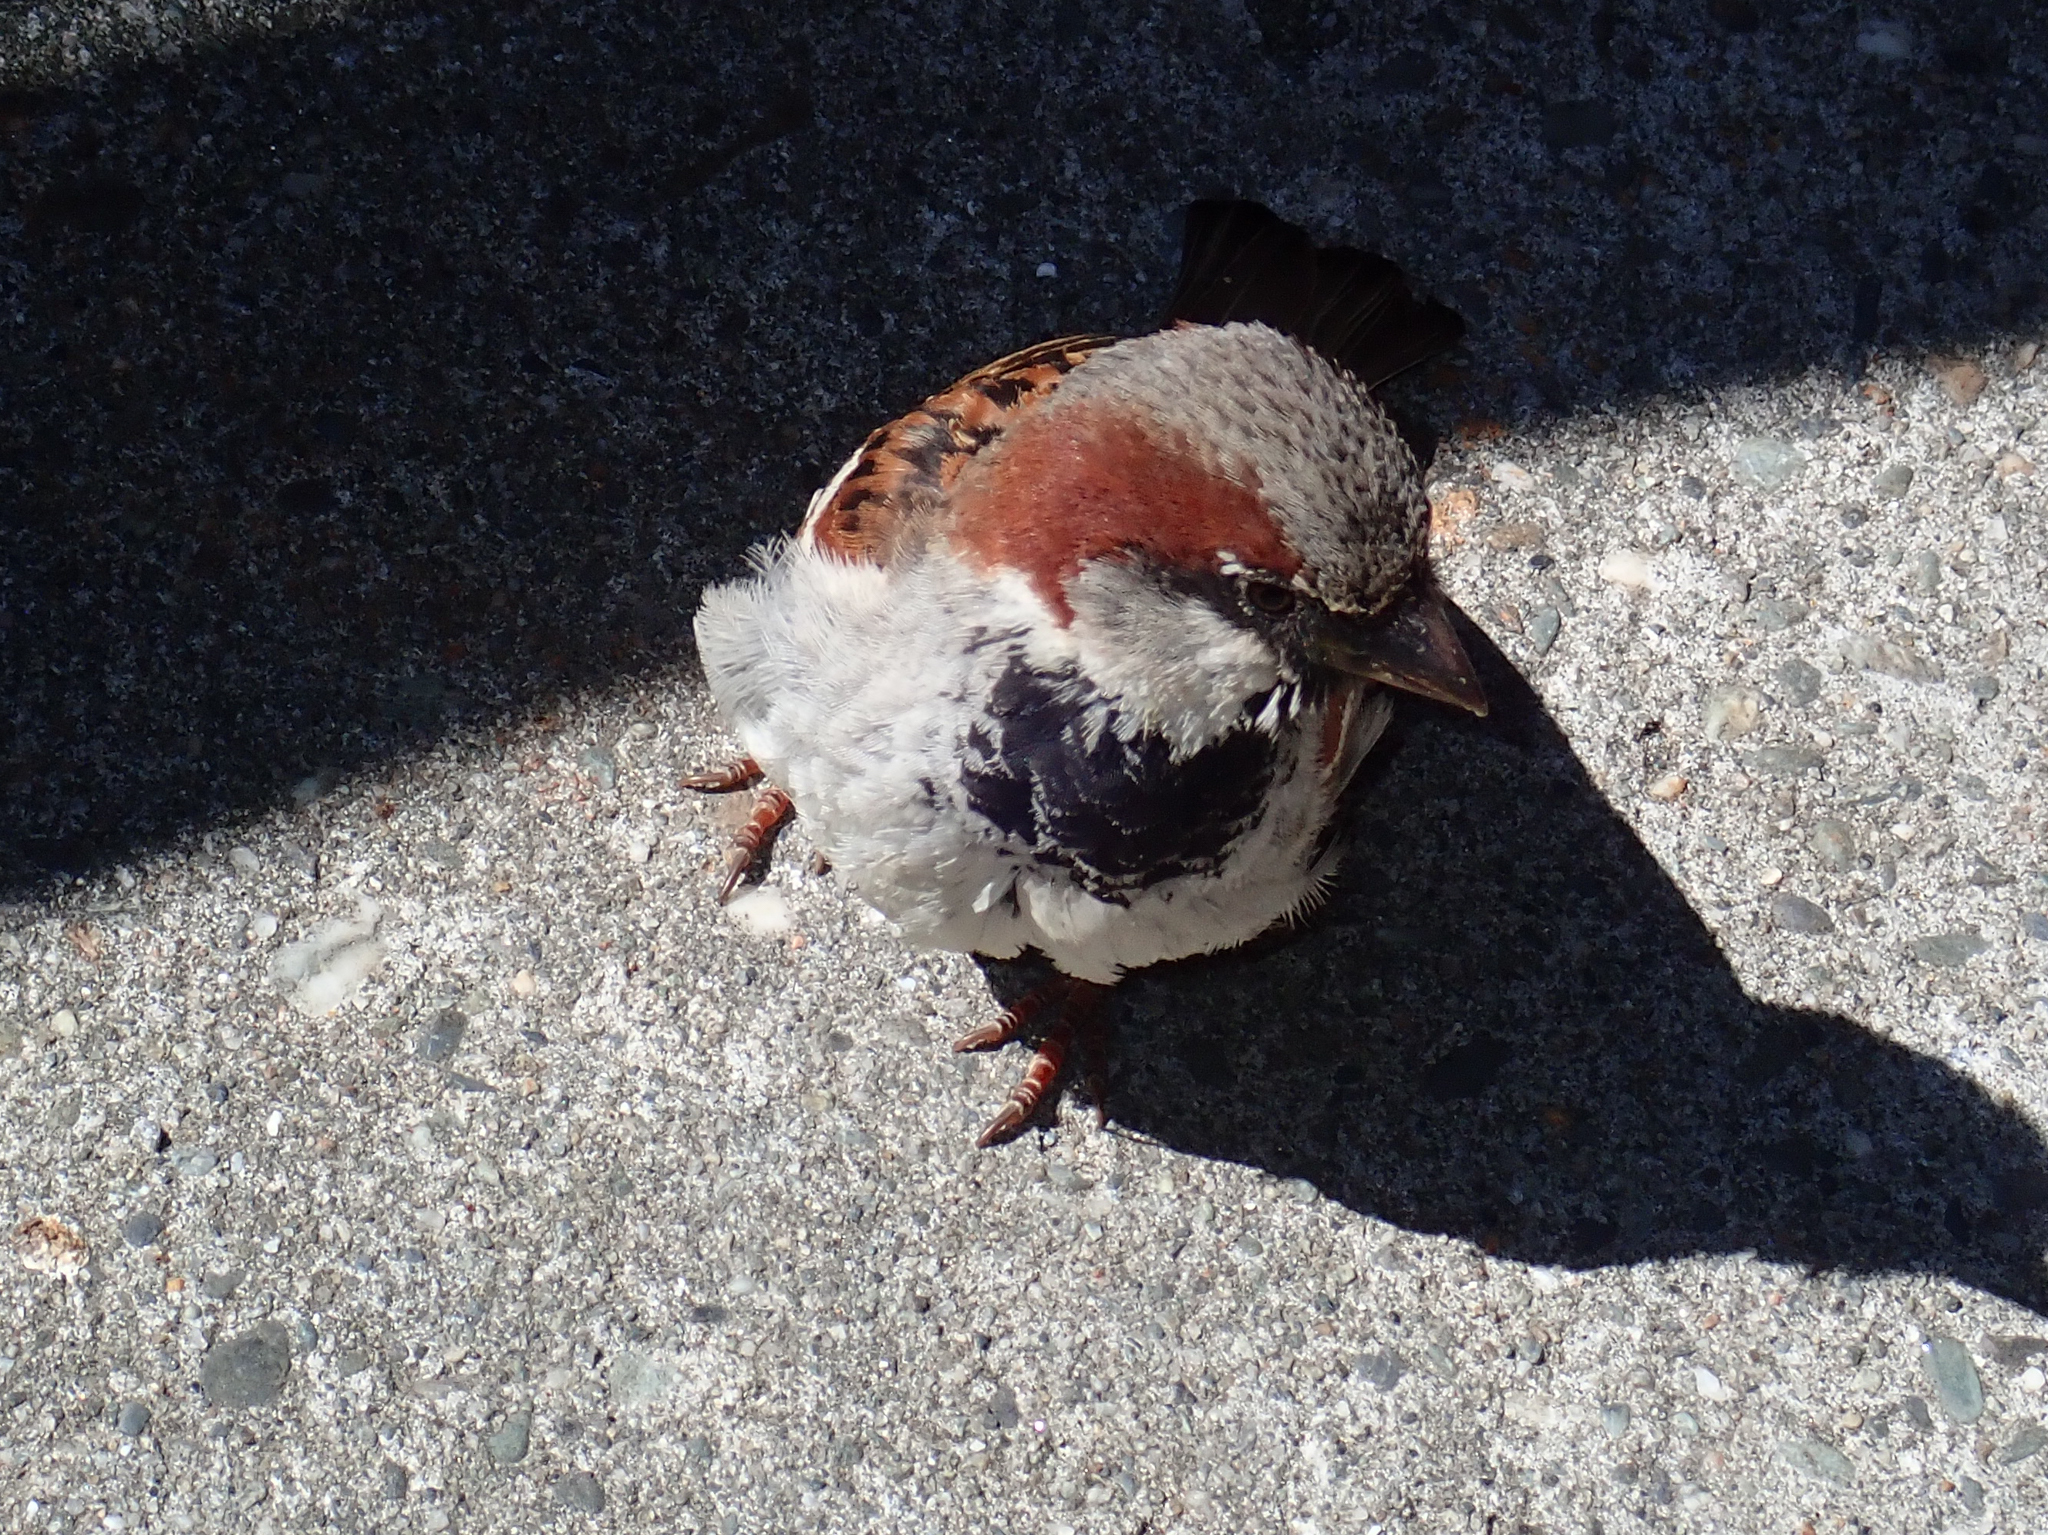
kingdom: Animalia
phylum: Chordata
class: Aves
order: Passeriformes
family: Passeridae
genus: Passer
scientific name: Passer domesticus
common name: House sparrow
